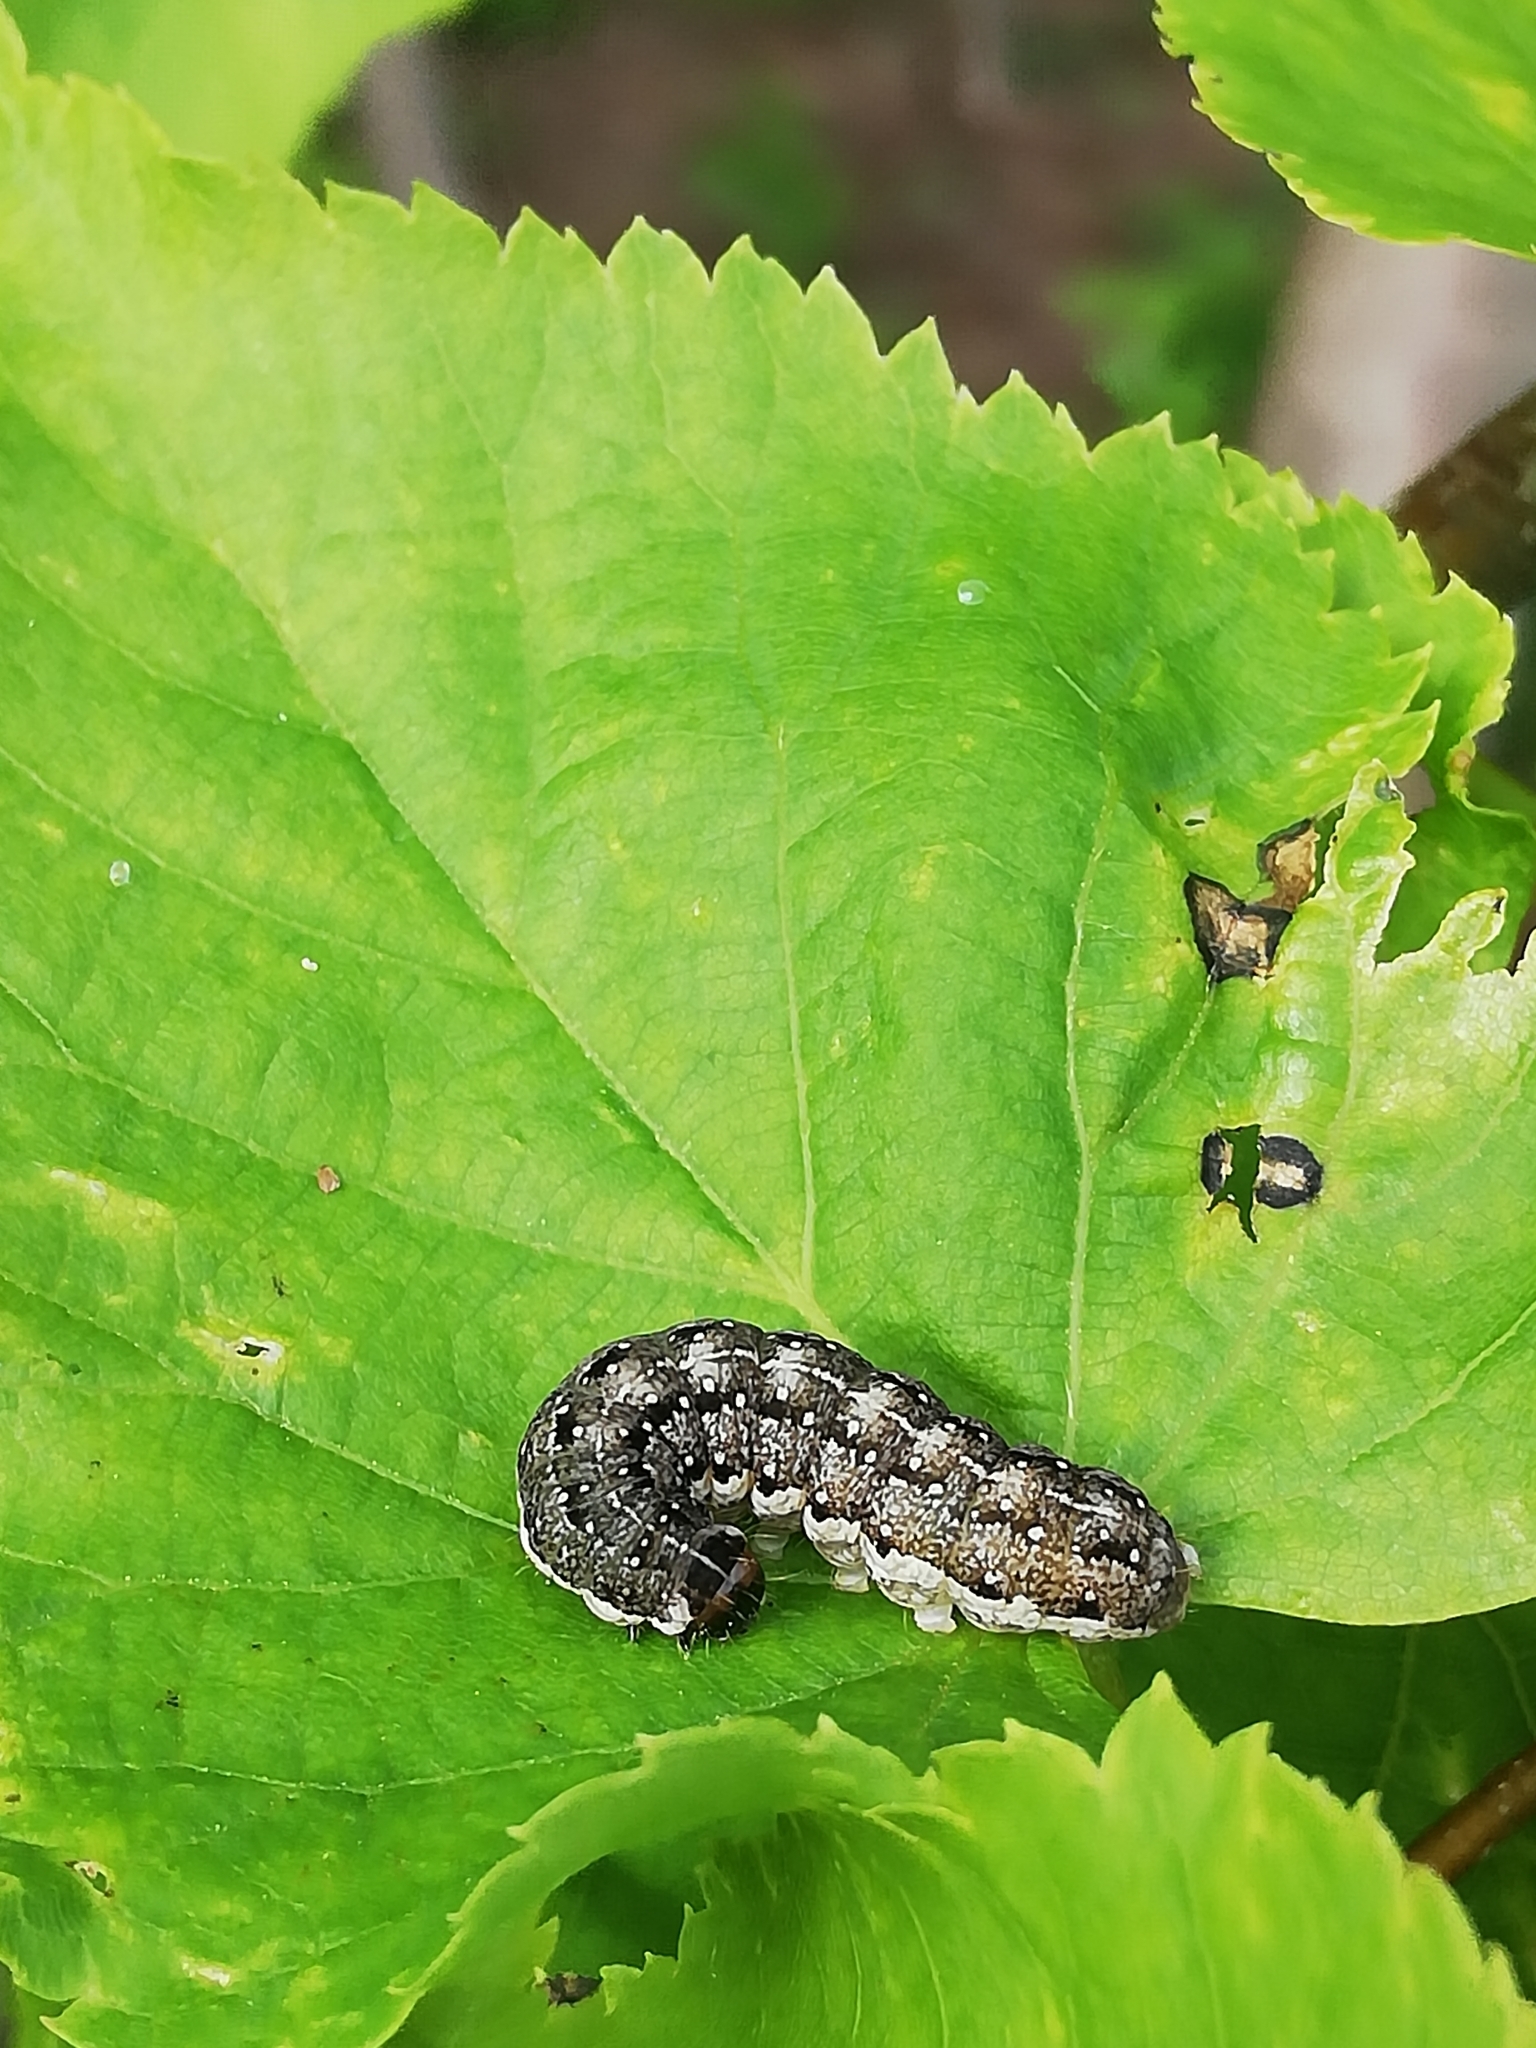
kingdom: Animalia
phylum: Arthropoda
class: Insecta
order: Lepidoptera
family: Noctuidae
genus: Tiliacea
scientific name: Tiliacea citrago
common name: Orange sallow
